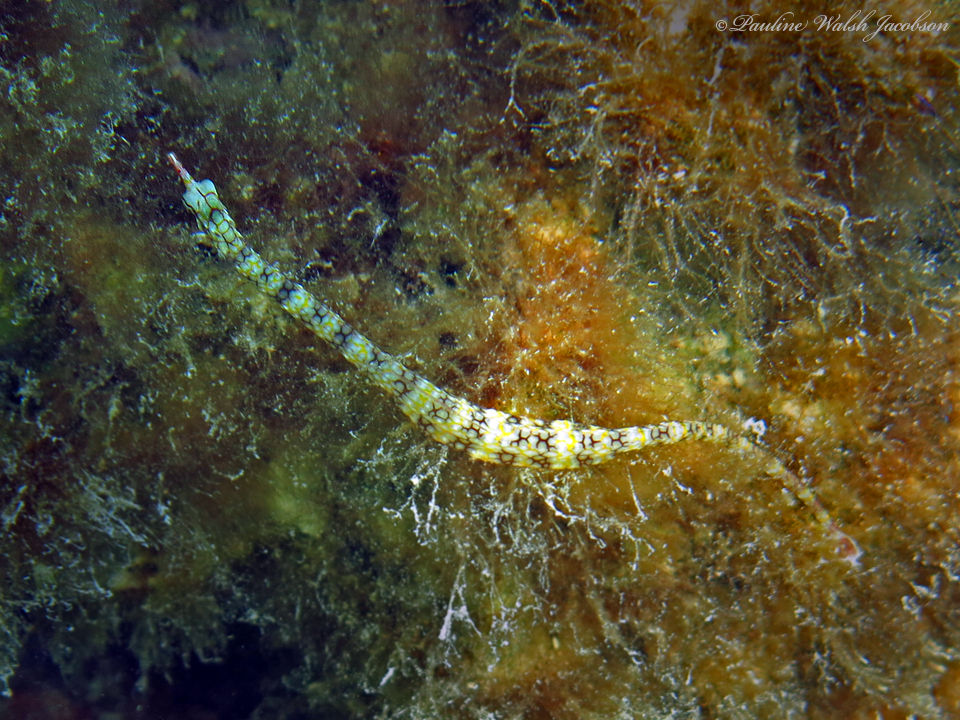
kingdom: Animalia
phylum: Chordata
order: Syngnathiformes
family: Syngnathidae
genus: Corythoichthys
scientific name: Corythoichthys flavofasciatus
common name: Banded pipefish
